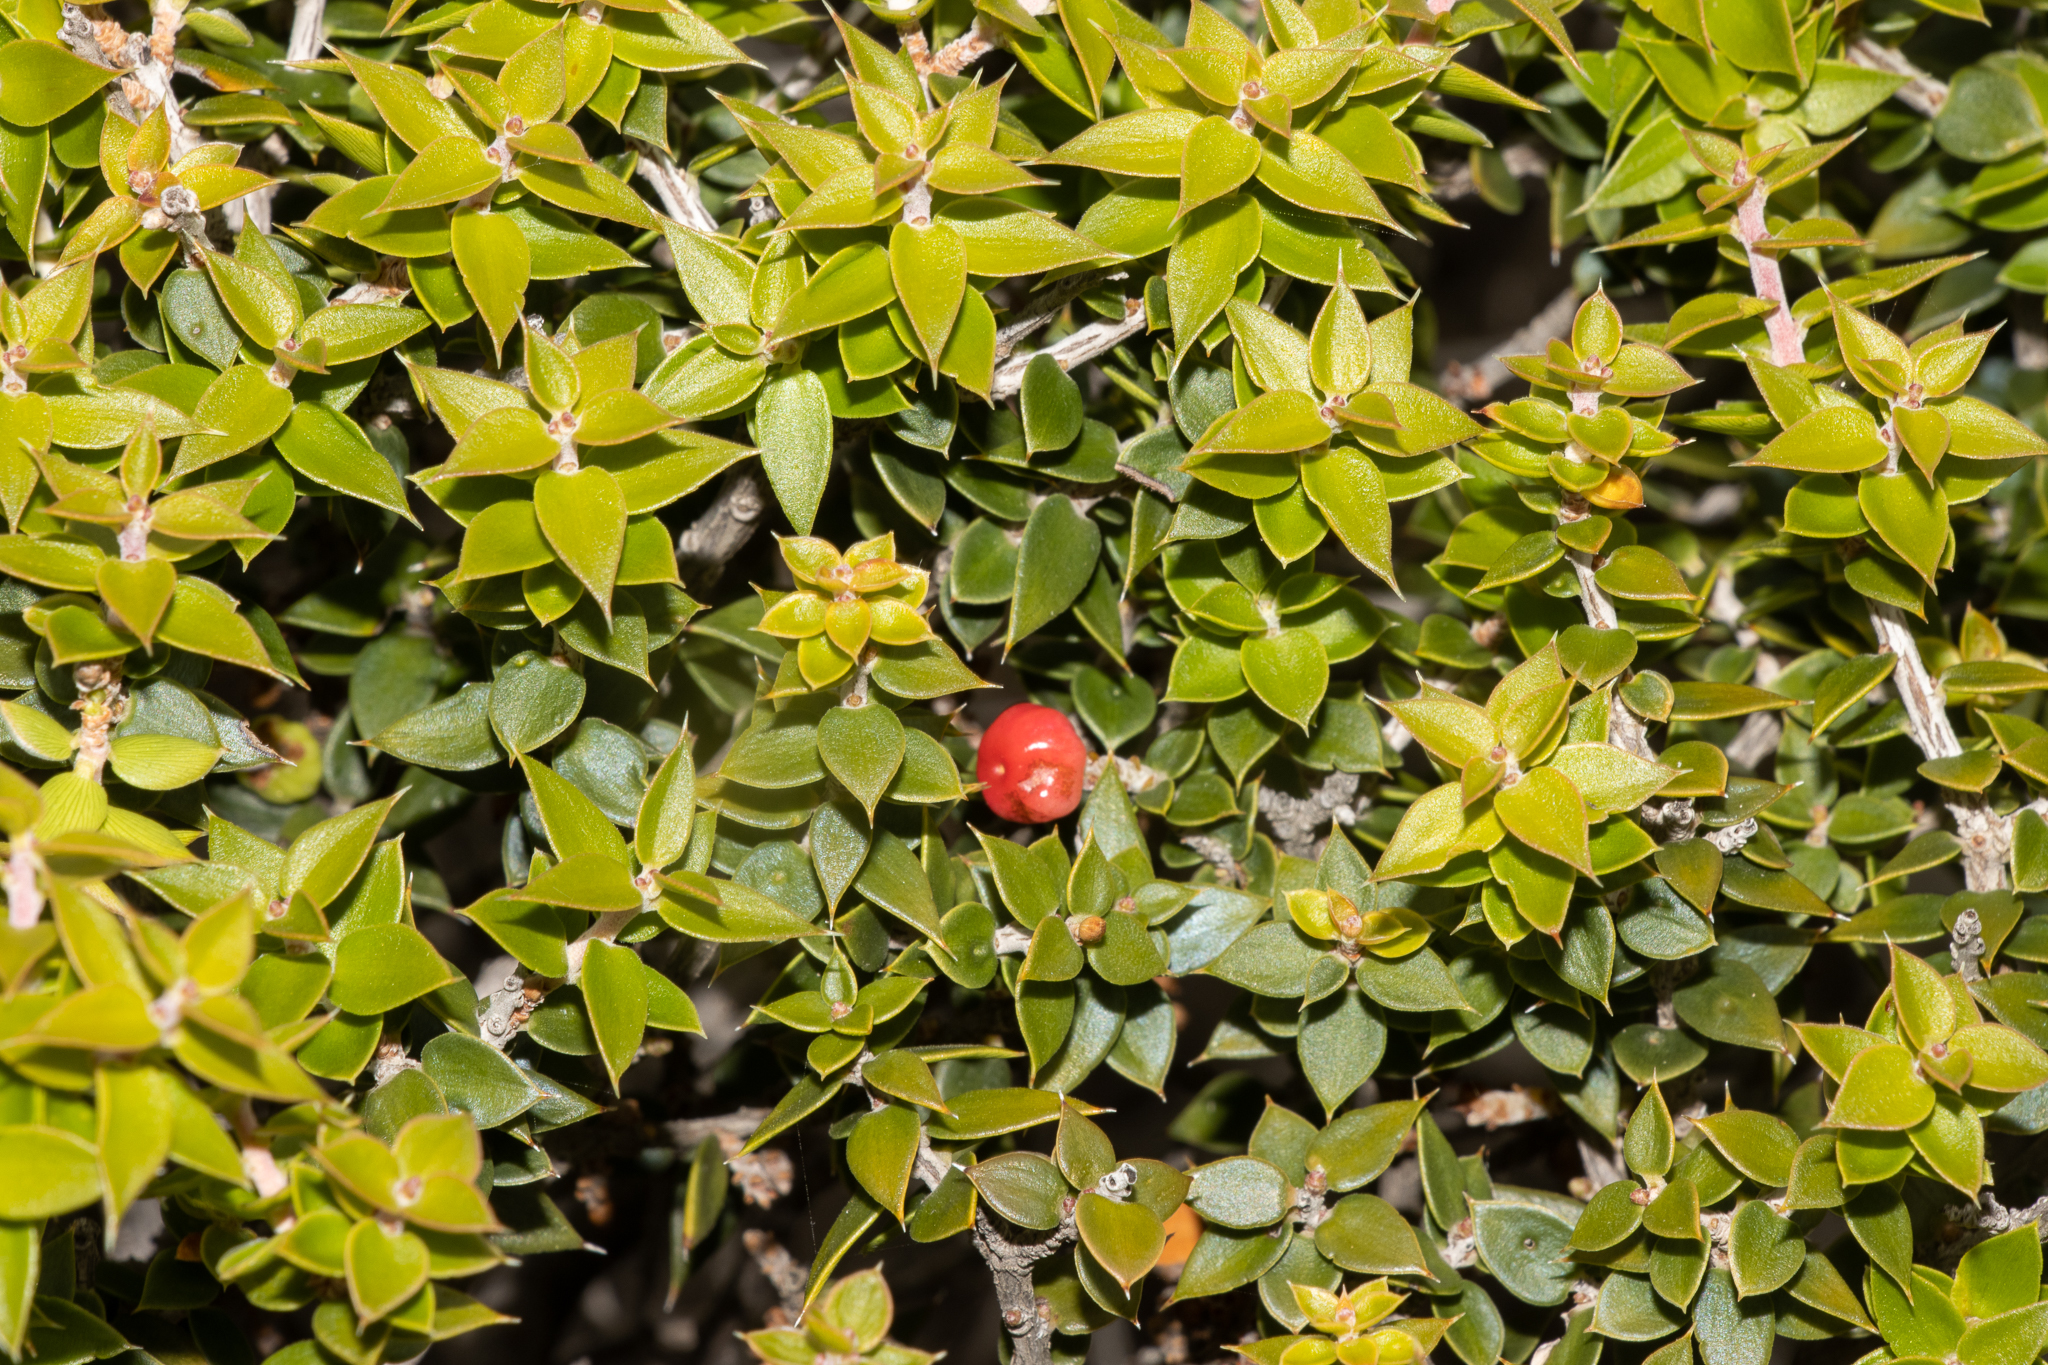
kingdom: Plantae
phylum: Tracheophyta
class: Magnoliopsida
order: Ericales
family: Ericaceae
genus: Acrotriche
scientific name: Acrotriche patula
